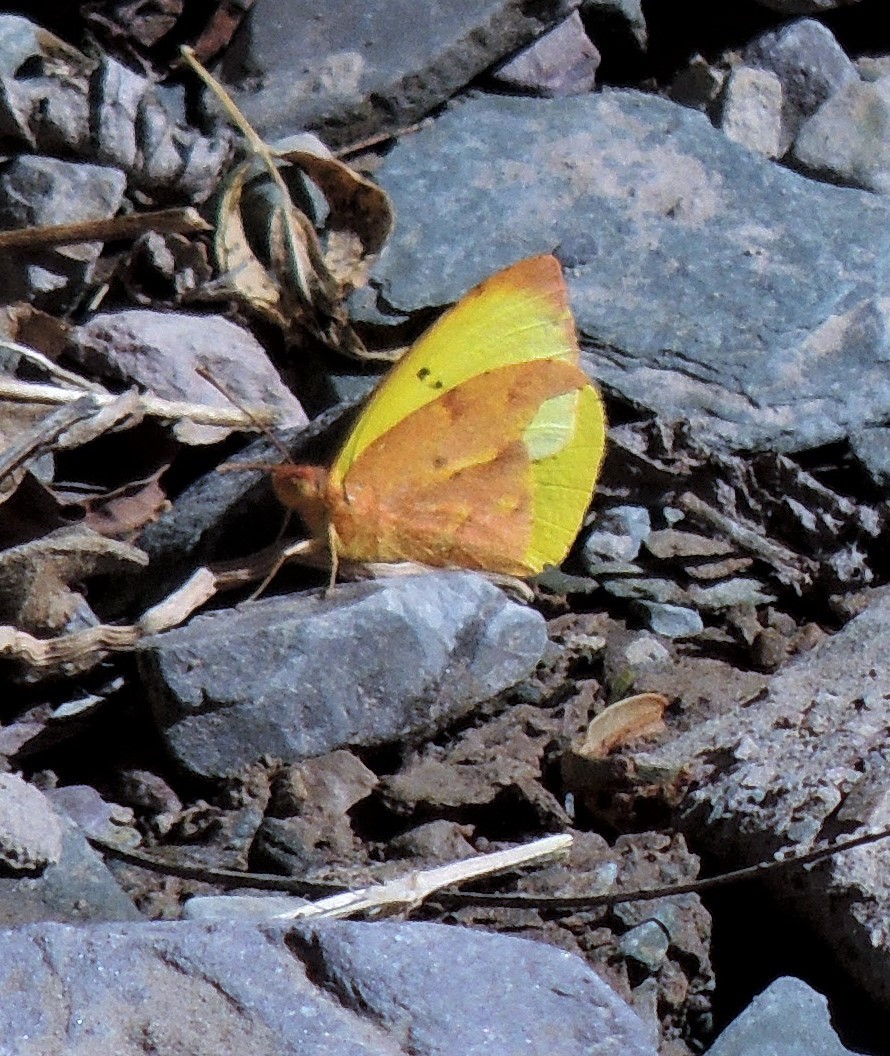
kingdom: Animalia
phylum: Arthropoda
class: Insecta
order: Lepidoptera
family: Pieridae
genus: Teriocolias
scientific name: Teriocolias zelia
